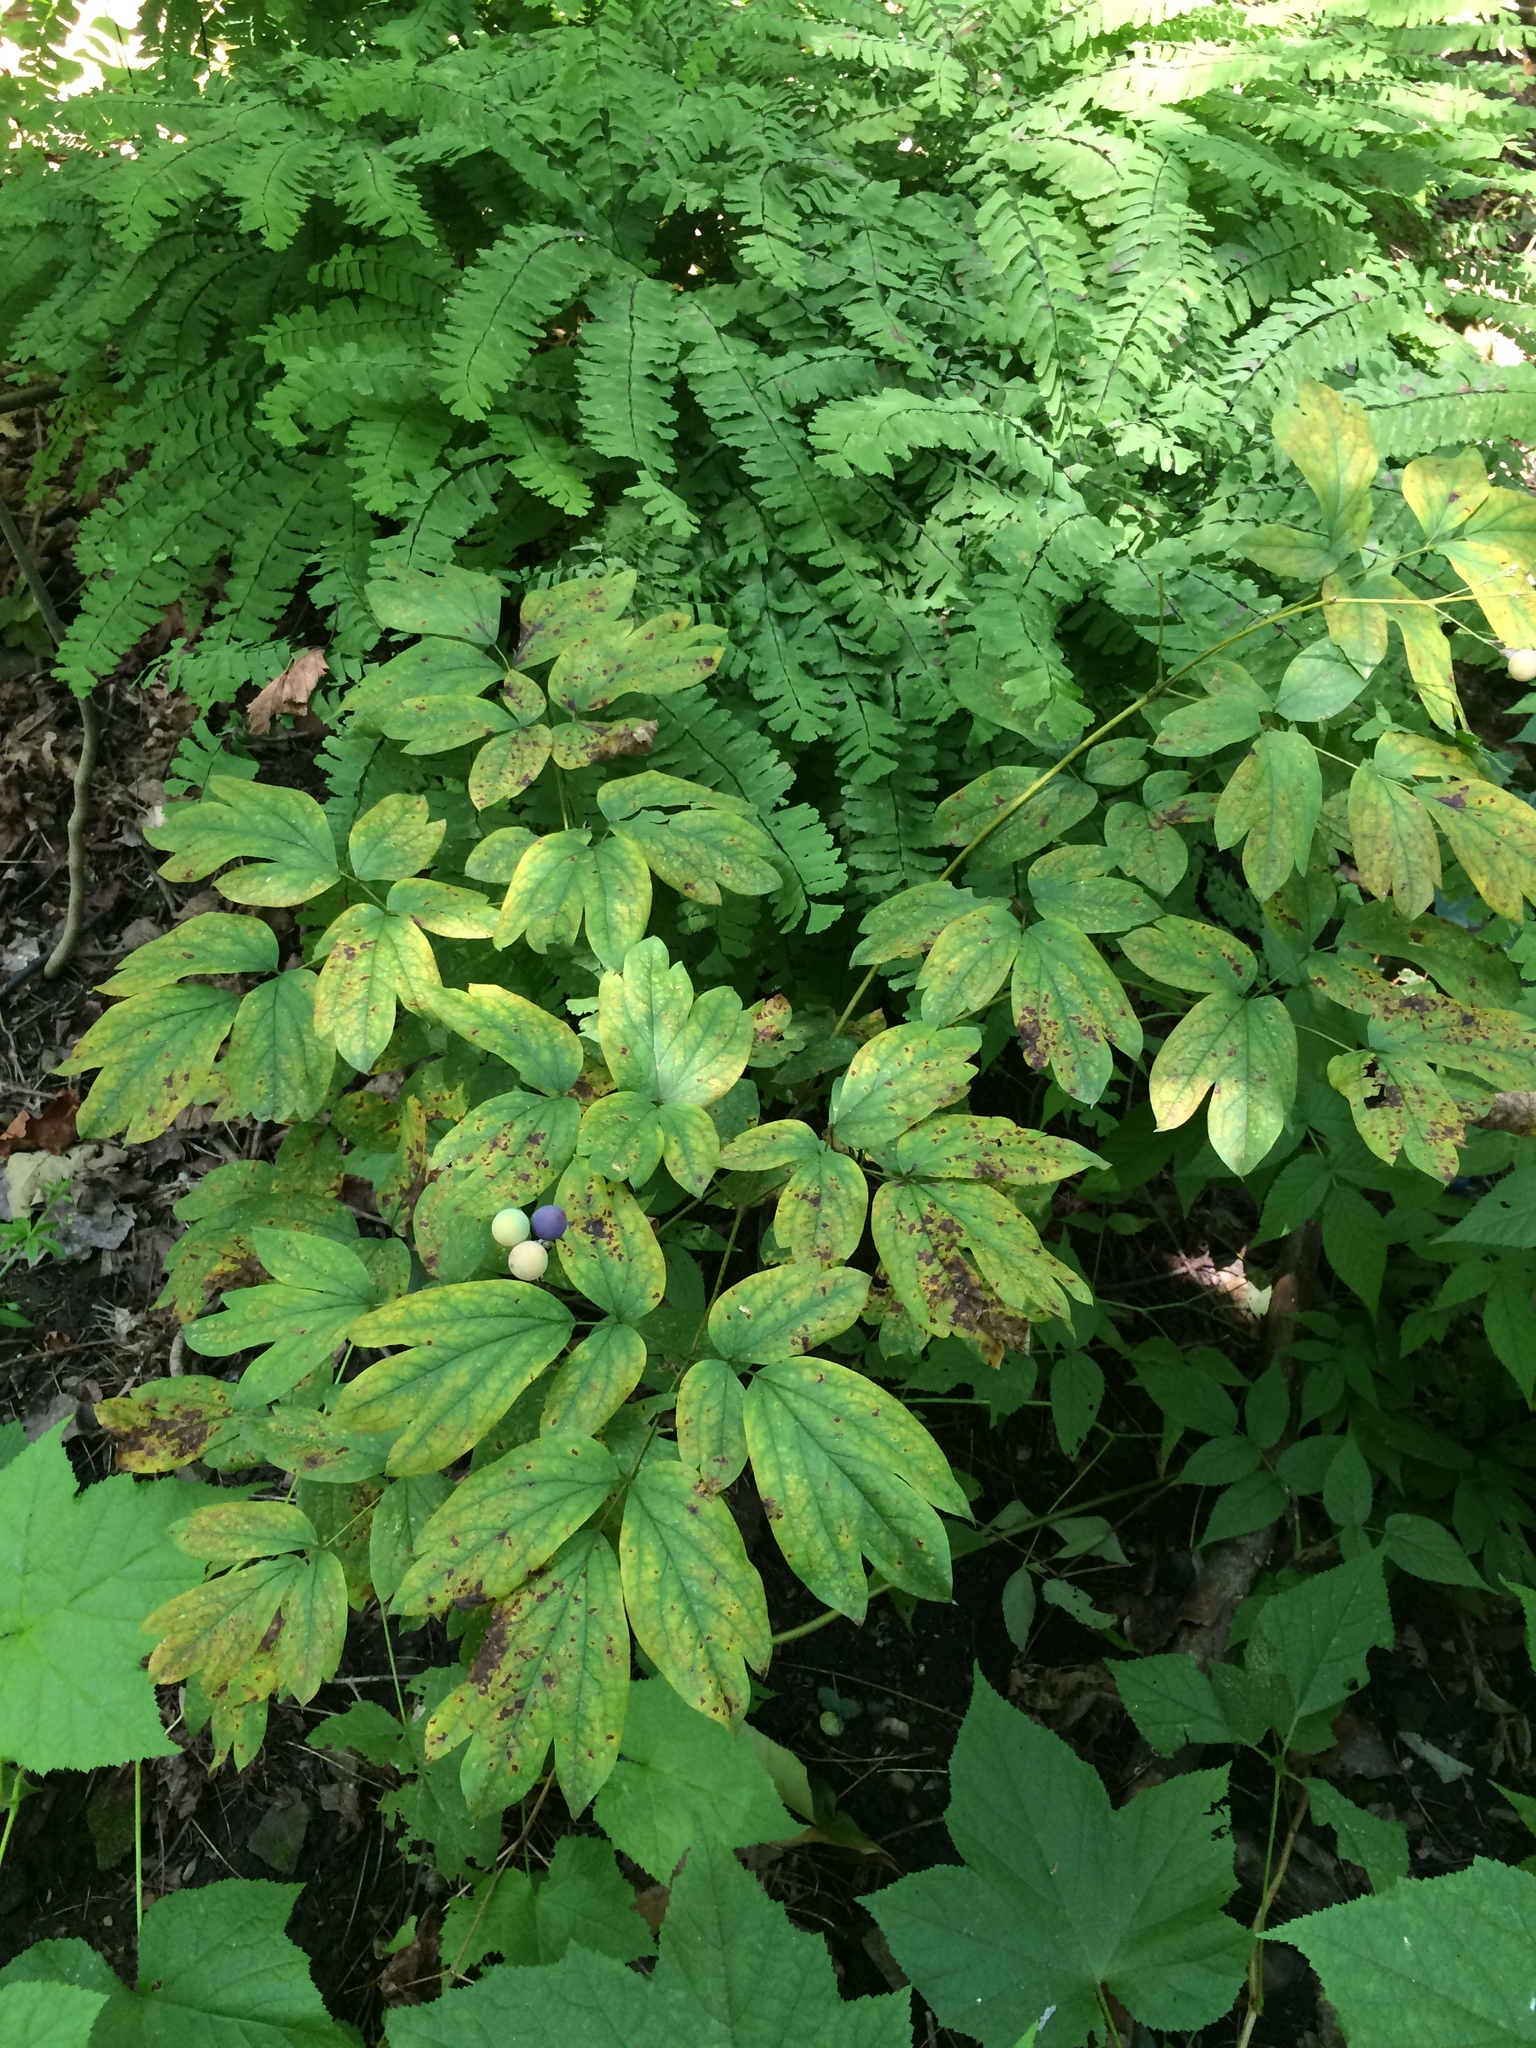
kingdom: Plantae
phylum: Tracheophyta
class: Magnoliopsida
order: Ranunculales
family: Berberidaceae
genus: Caulophyllum
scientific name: Caulophyllum
